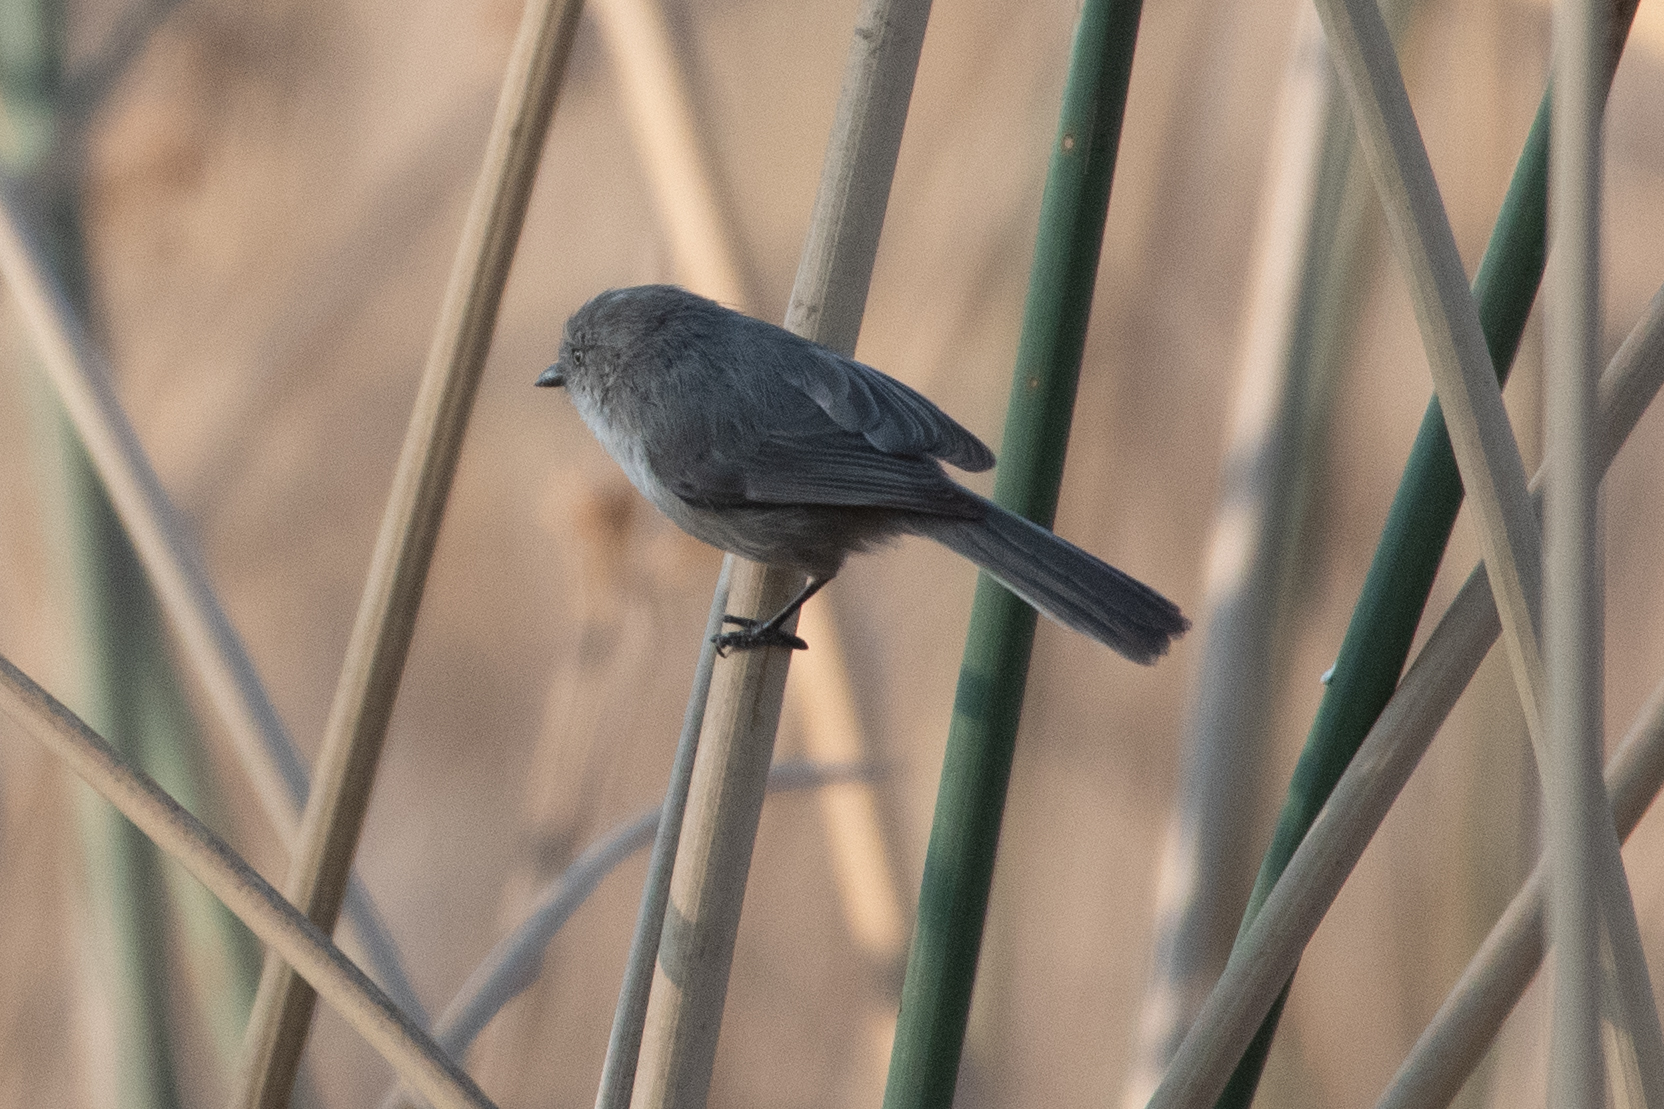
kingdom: Animalia
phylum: Chordata
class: Aves
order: Passeriformes
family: Aegithalidae
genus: Psaltriparus
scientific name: Psaltriparus minimus
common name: American bushtit
